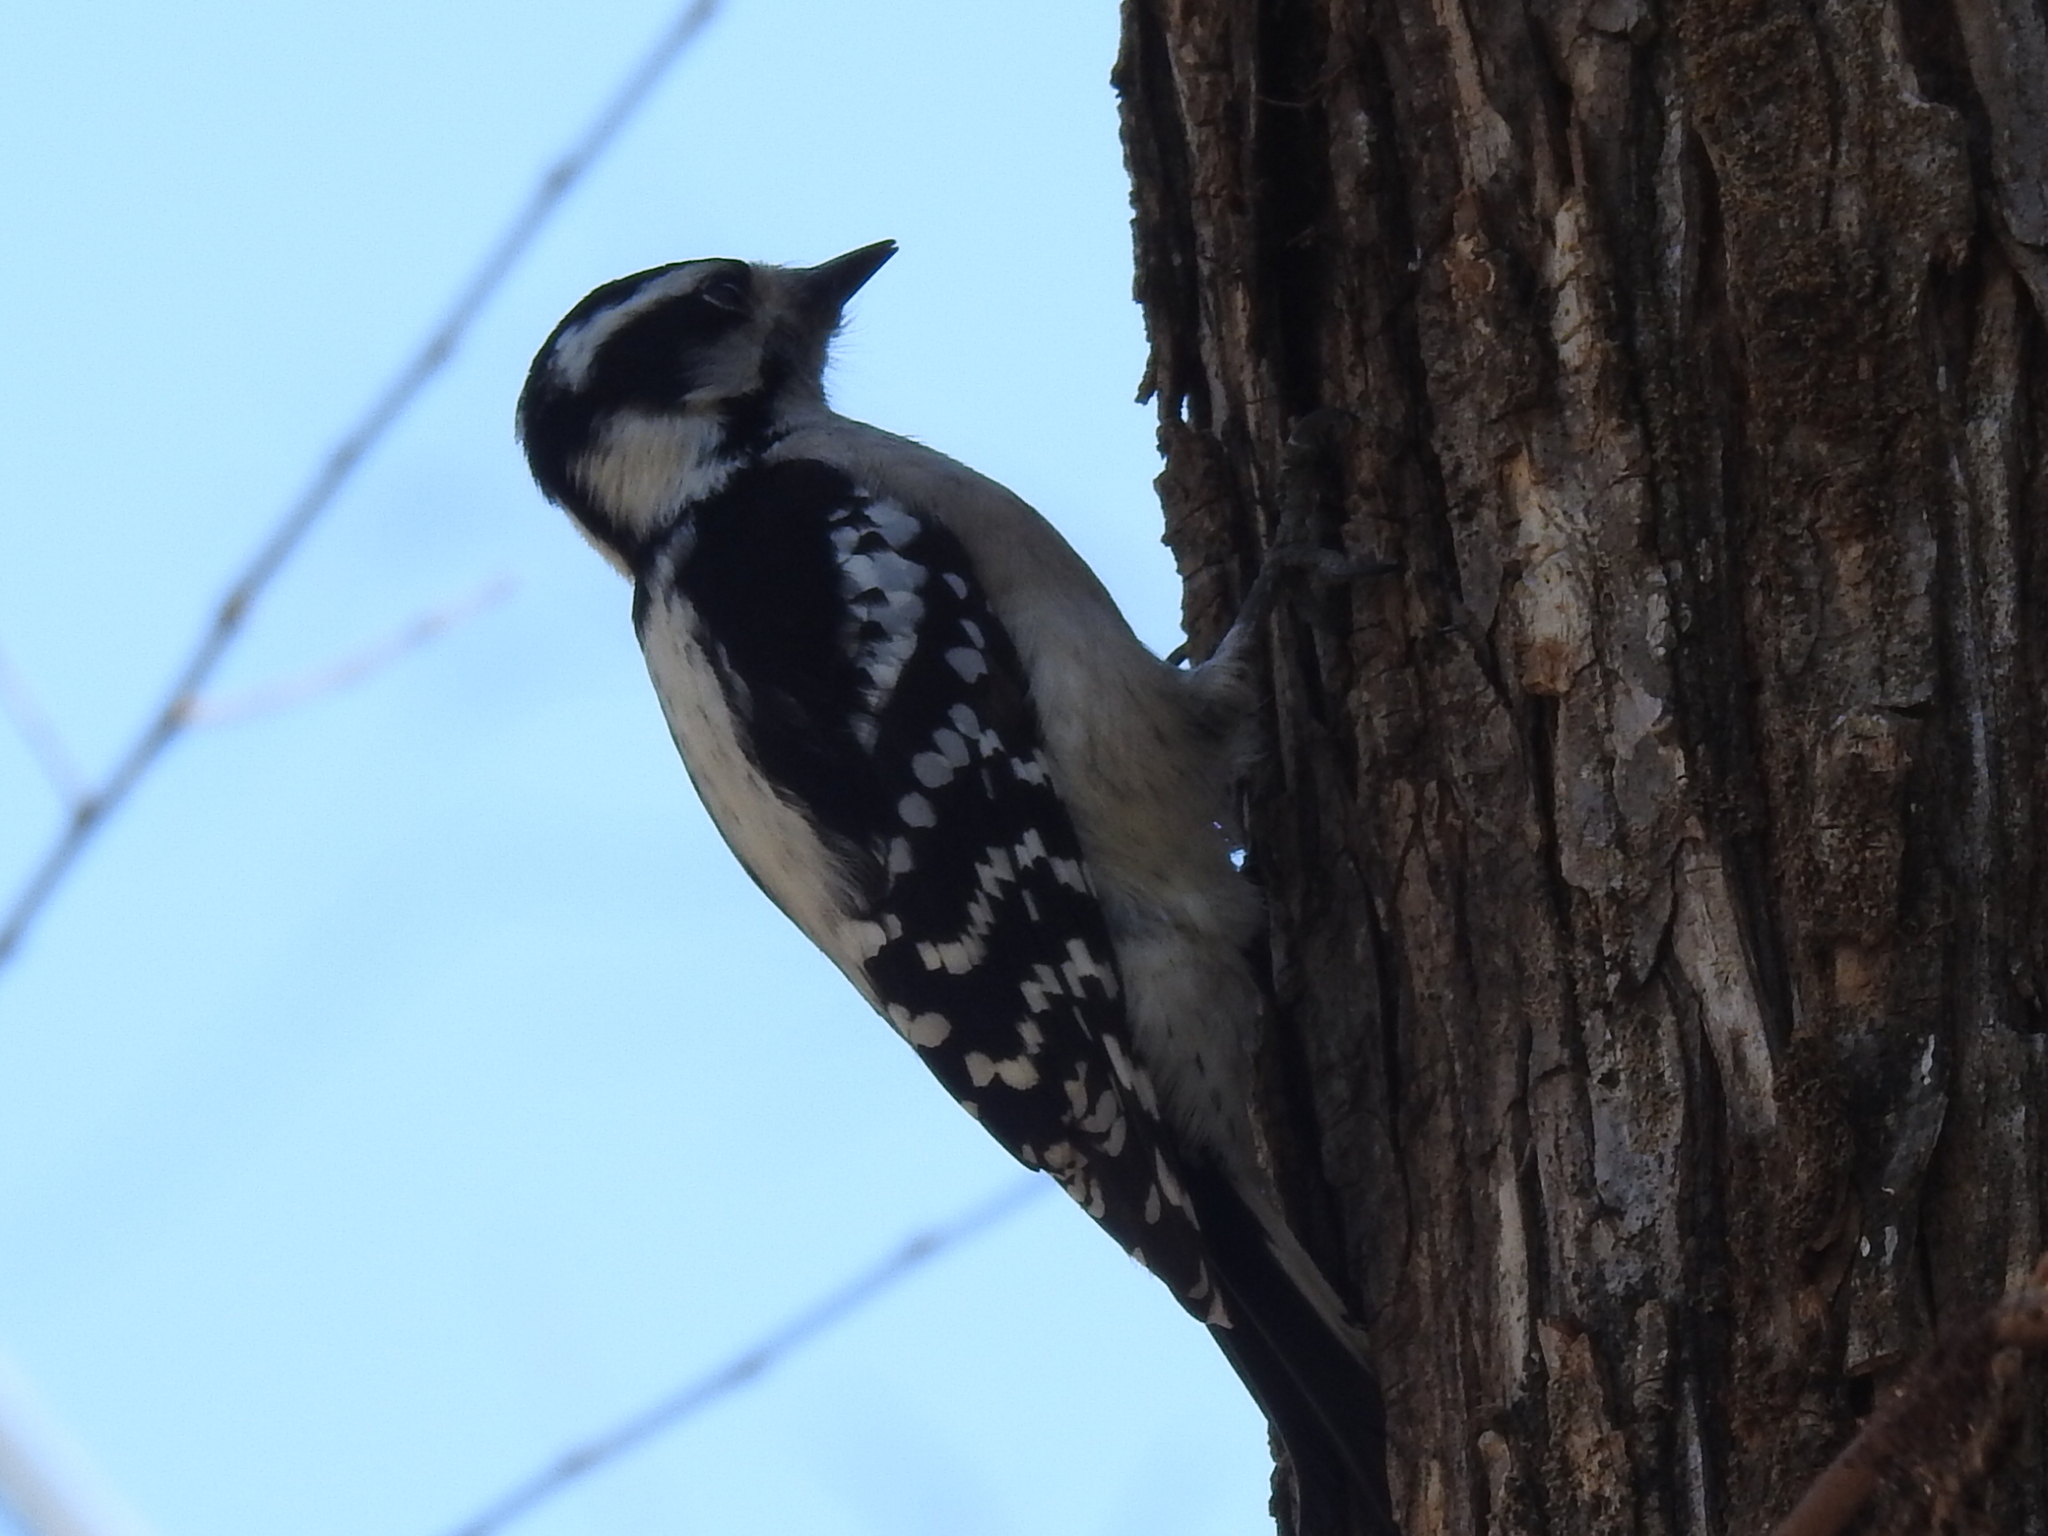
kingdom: Animalia
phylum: Chordata
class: Aves
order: Piciformes
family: Picidae
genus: Dryobates
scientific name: Dryobates pubescens
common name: Downy woodpecker
